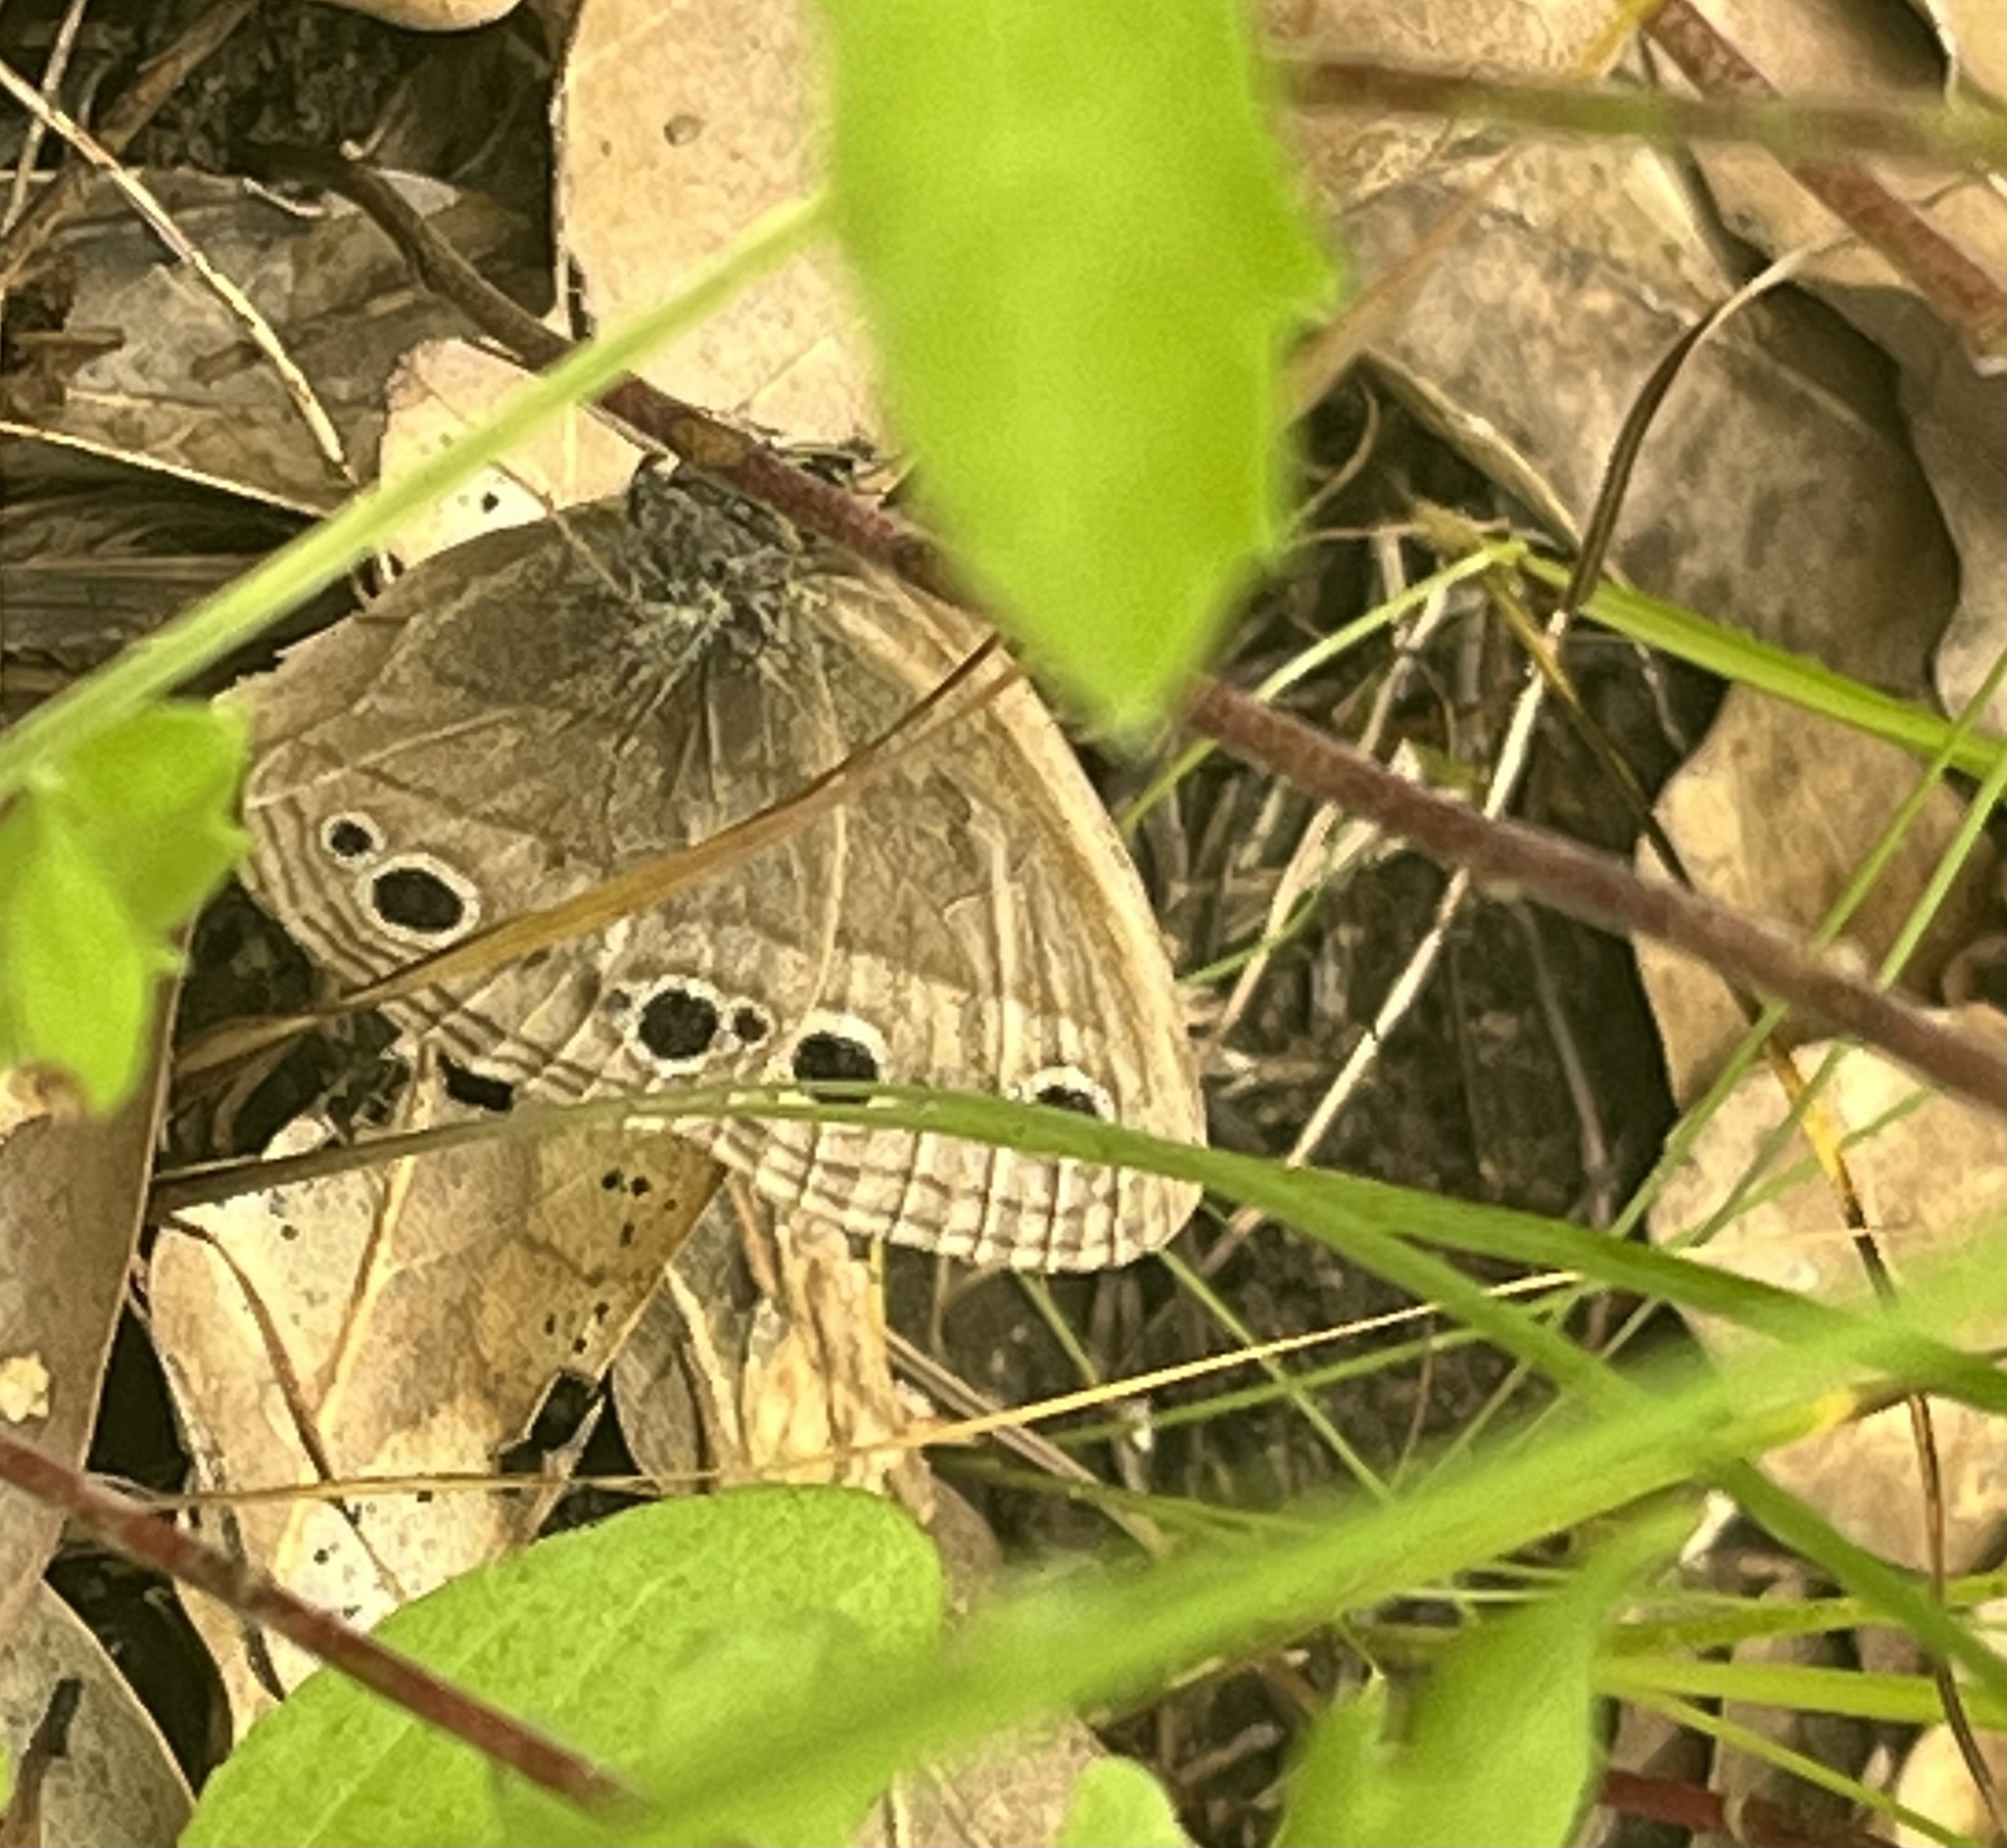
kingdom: Animalia
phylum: Arthropoda
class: Insecta
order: Lepidoptera
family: Nymphalidae
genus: Euptychia
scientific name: Euptychia cymela
